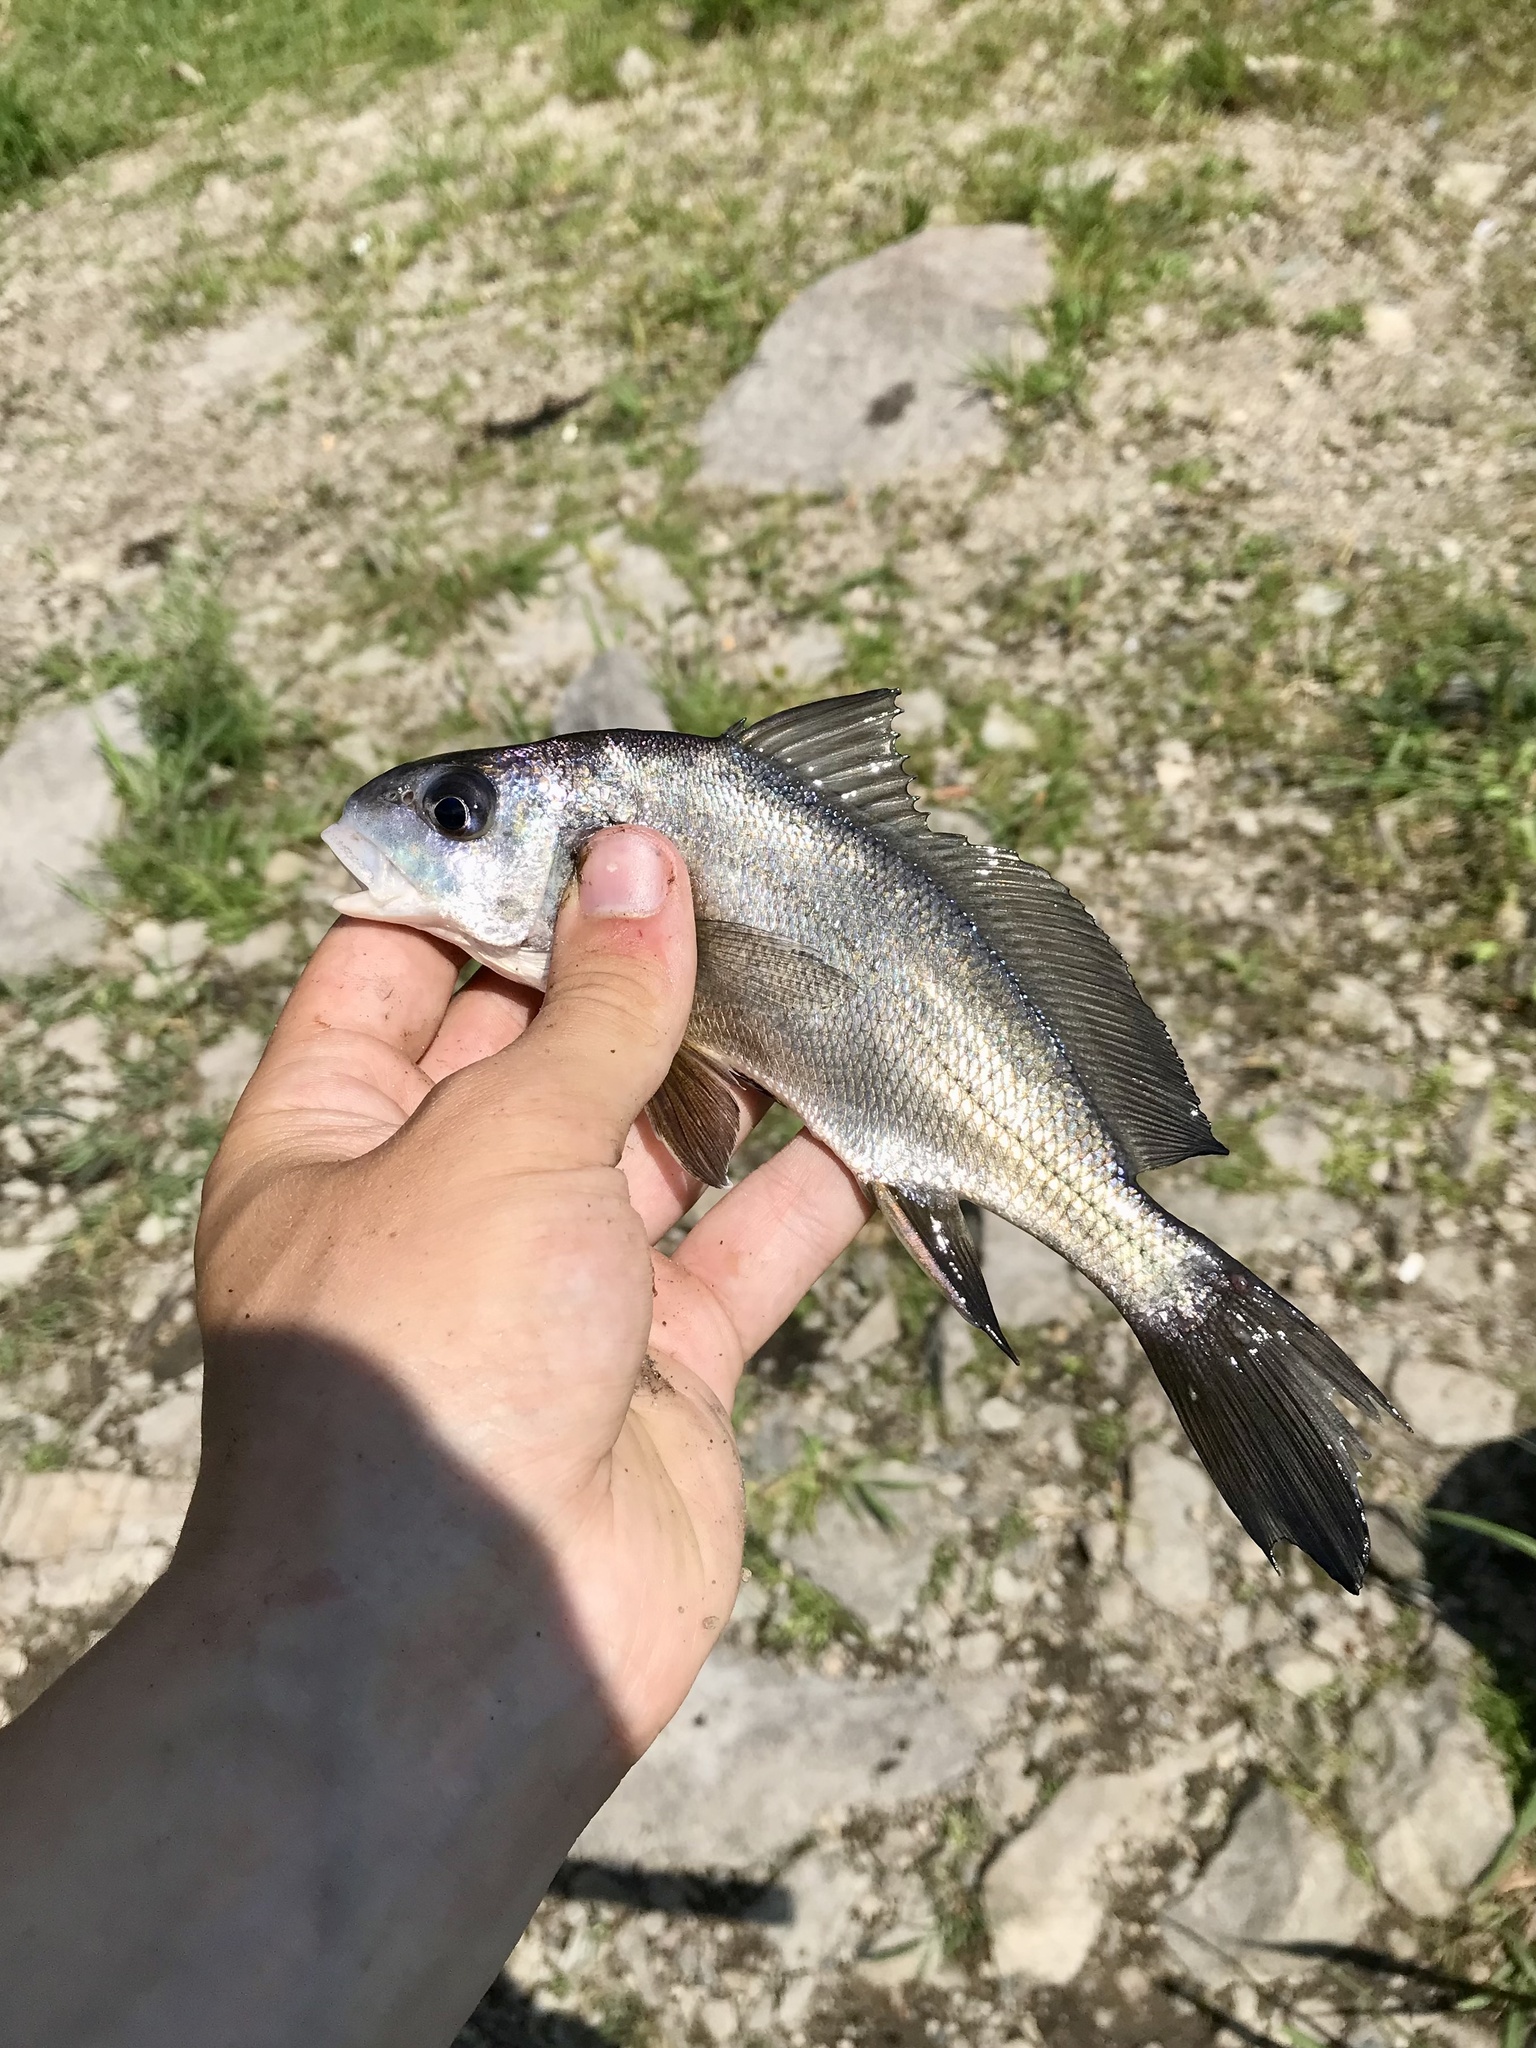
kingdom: Animalia
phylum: Chordata
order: Perciformes
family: Sciaenidae
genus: Aplodinotus
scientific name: Aplodinotus grunniens
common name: Freshwater drum
